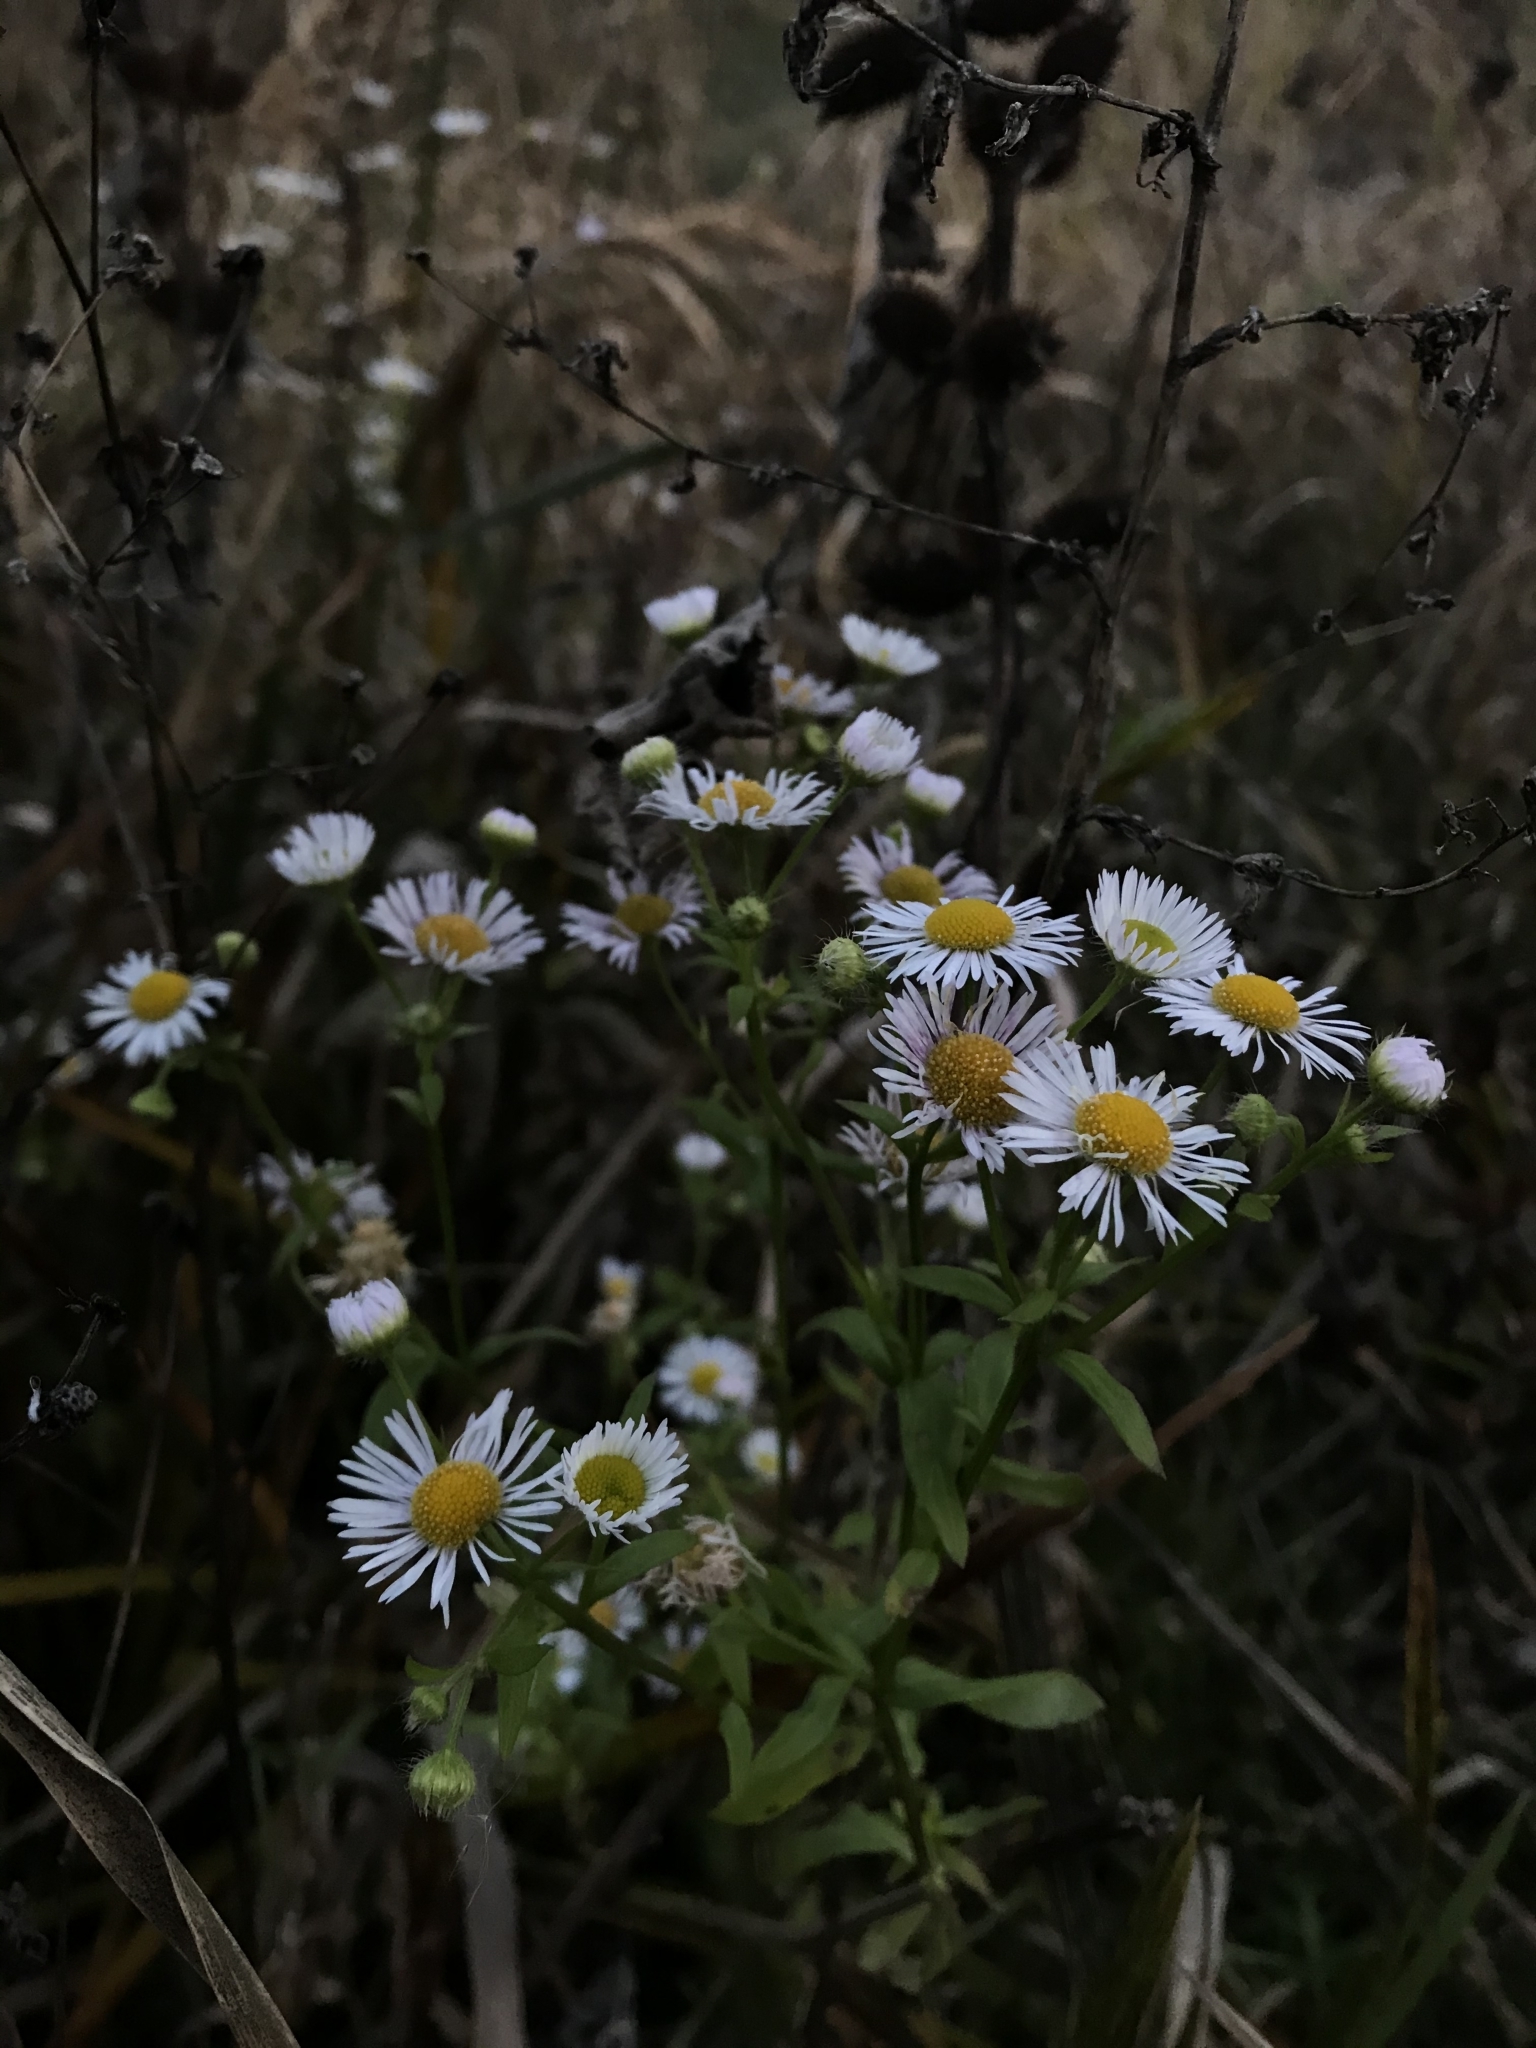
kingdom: Plantae
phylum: Tracheophyta
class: Magnoliopsida
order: Asterales
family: Asteraceae
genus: Erigeron
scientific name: Erigeron annuus
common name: Tall fleabane
